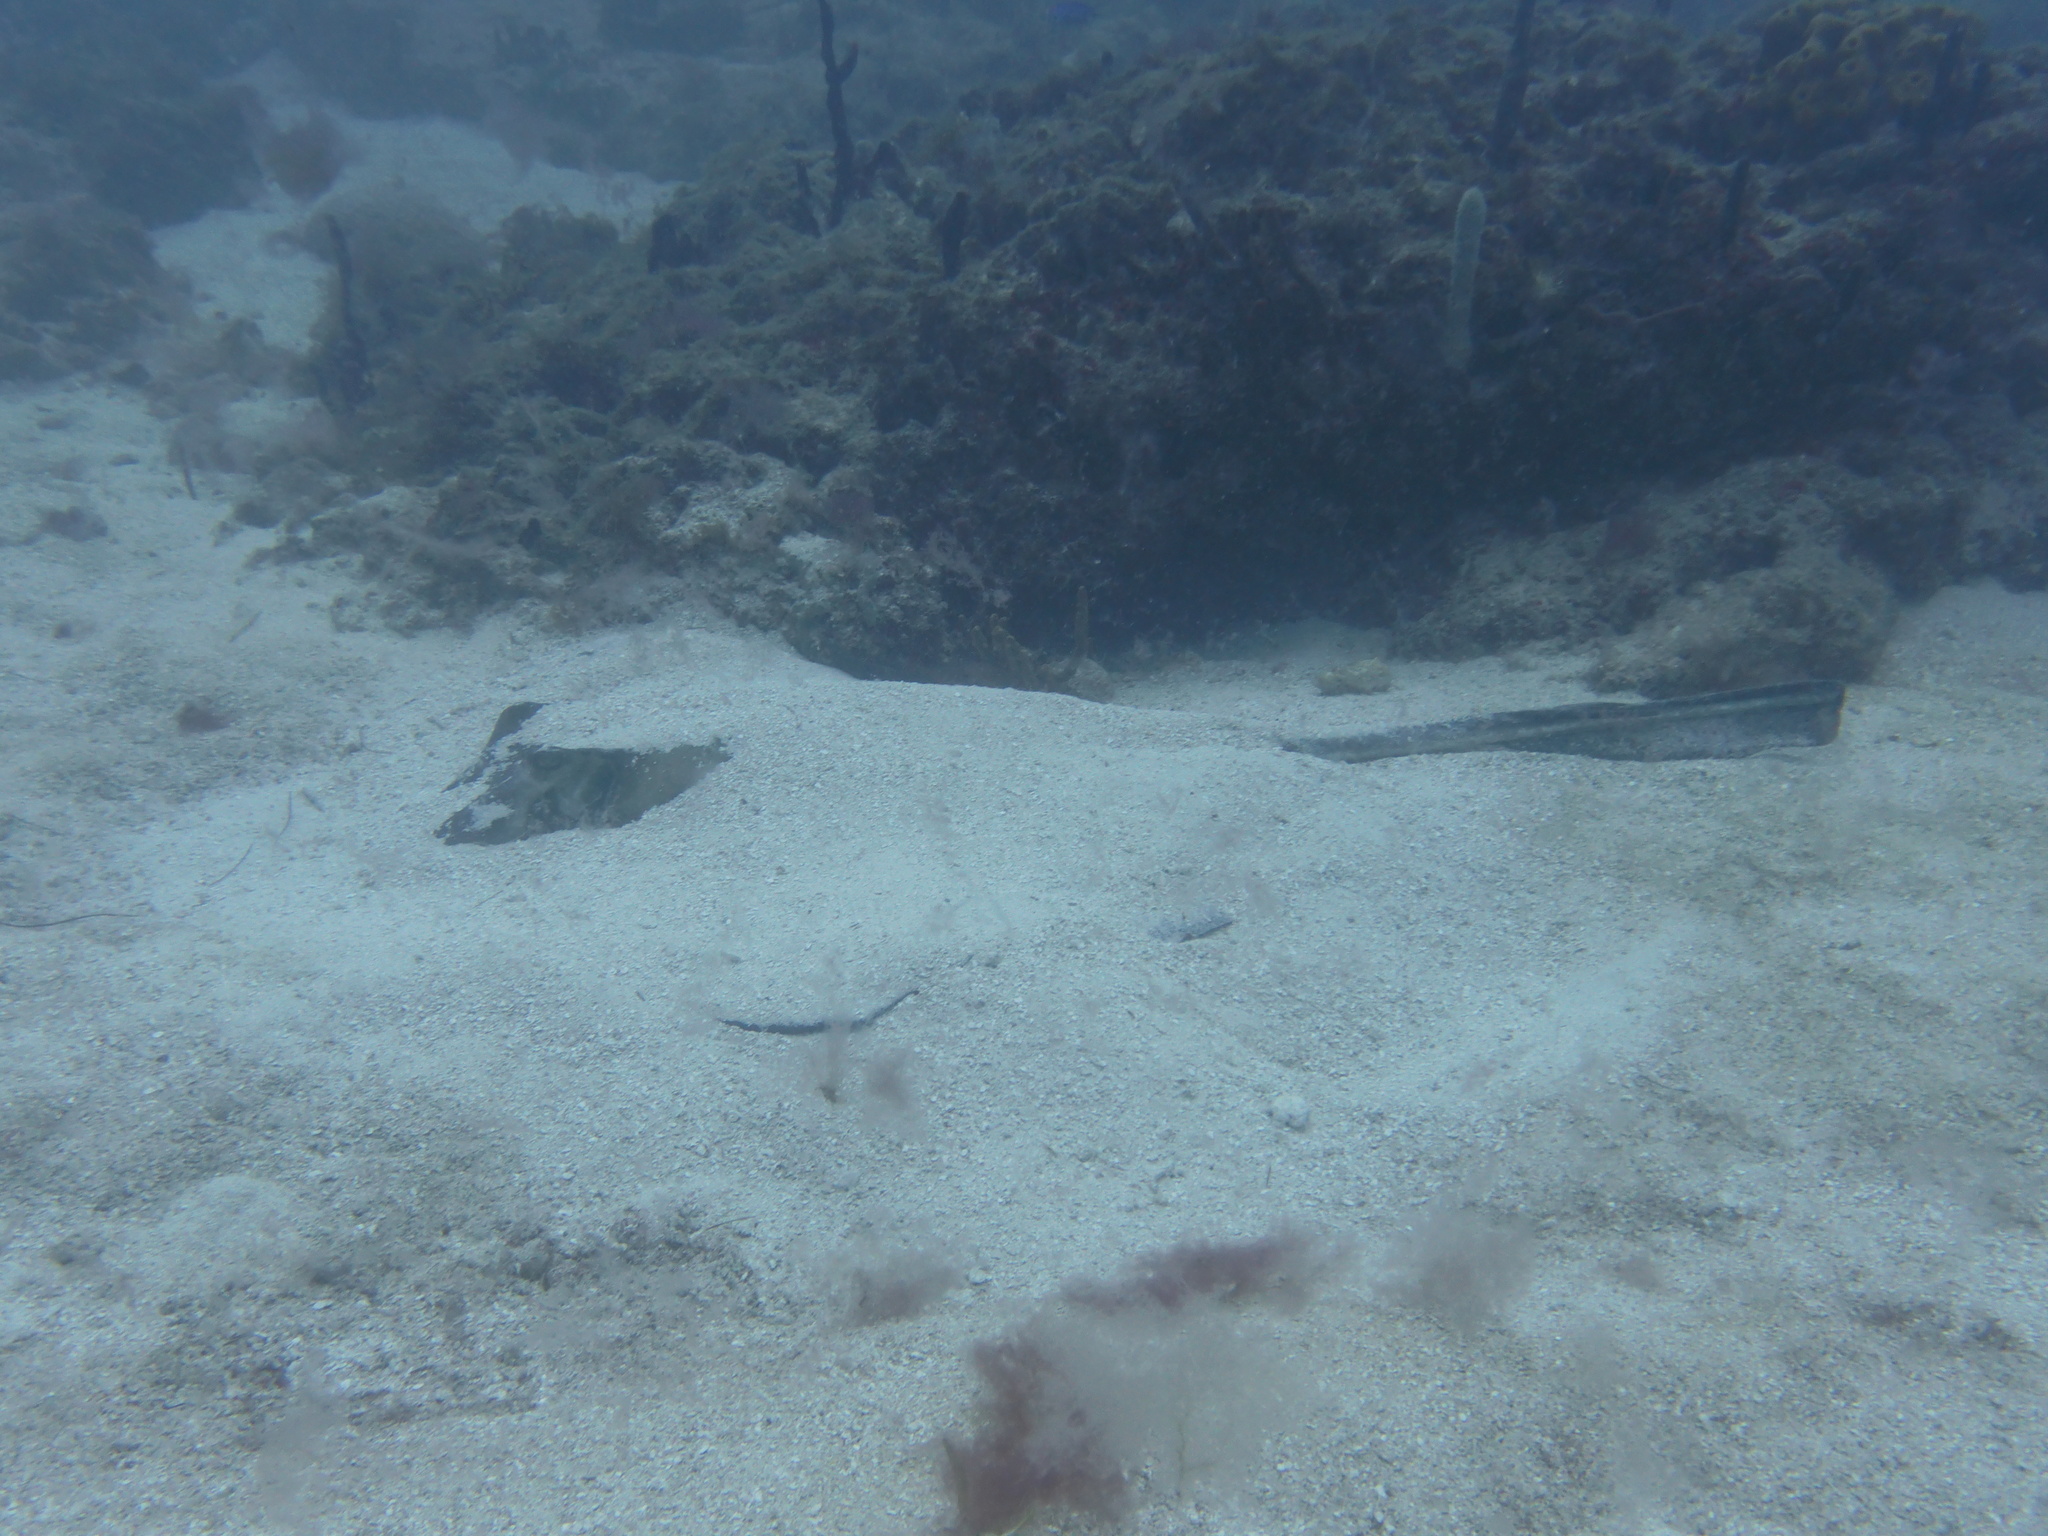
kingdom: Animalia
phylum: Chordata
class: Elasmobranchii
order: Myliobatiformes
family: Dasyatidae
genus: Hypanus
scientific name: Hypanus americanus
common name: Southern stingray
